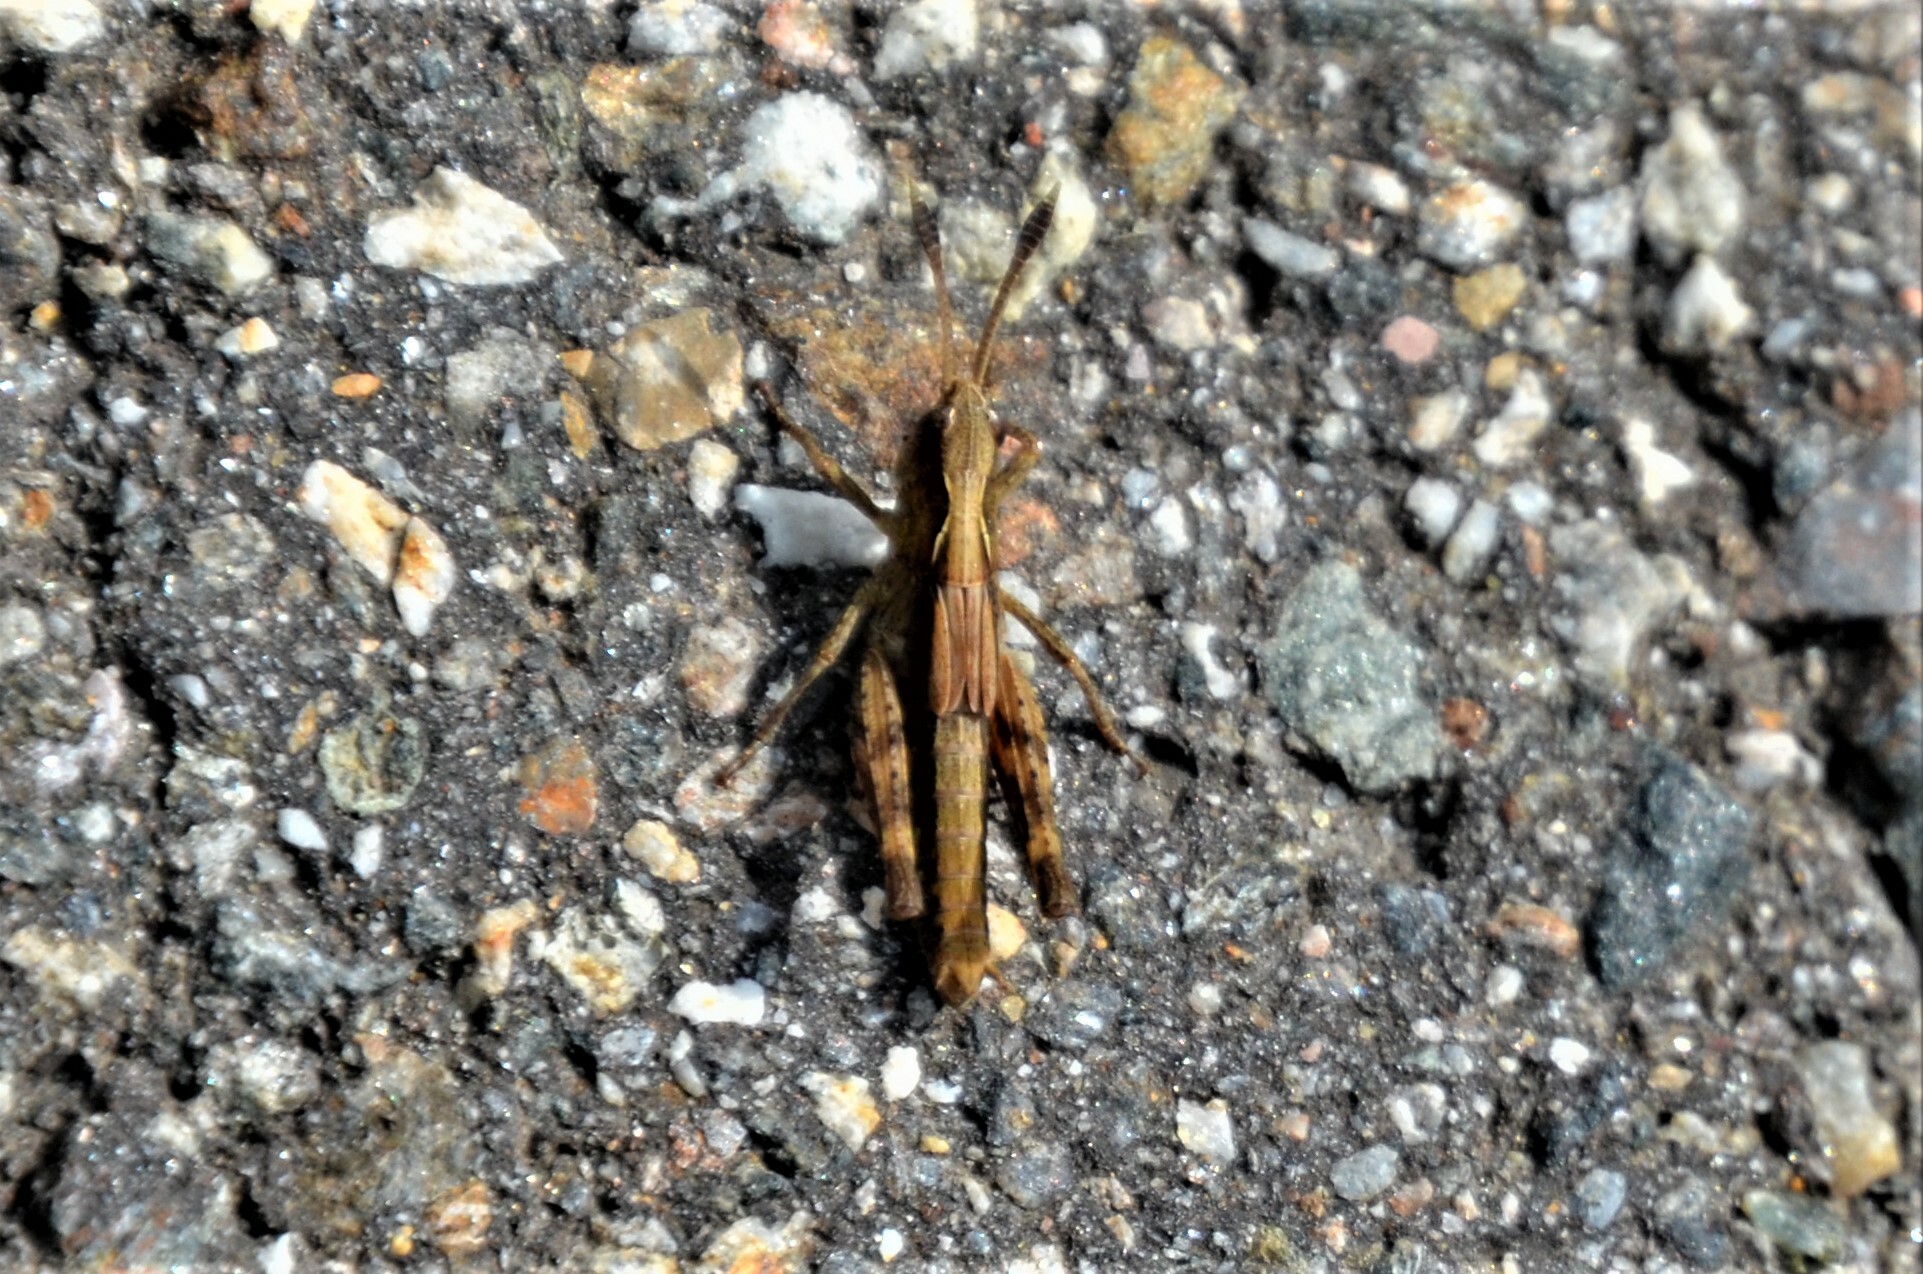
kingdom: Animalia
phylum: Arthropoda
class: Insecta
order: Orthoptera
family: Acrididae
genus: Gomphocerippus
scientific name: Gomphocerippus rufus
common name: Rufous grasshopper
